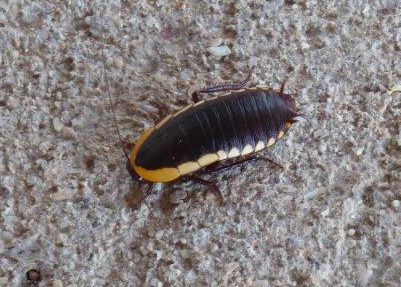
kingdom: Animalia
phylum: Arthropoda
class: Insecta
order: Blattodea
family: Blattidae
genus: Cosmozosteria
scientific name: Cosmozosteria
